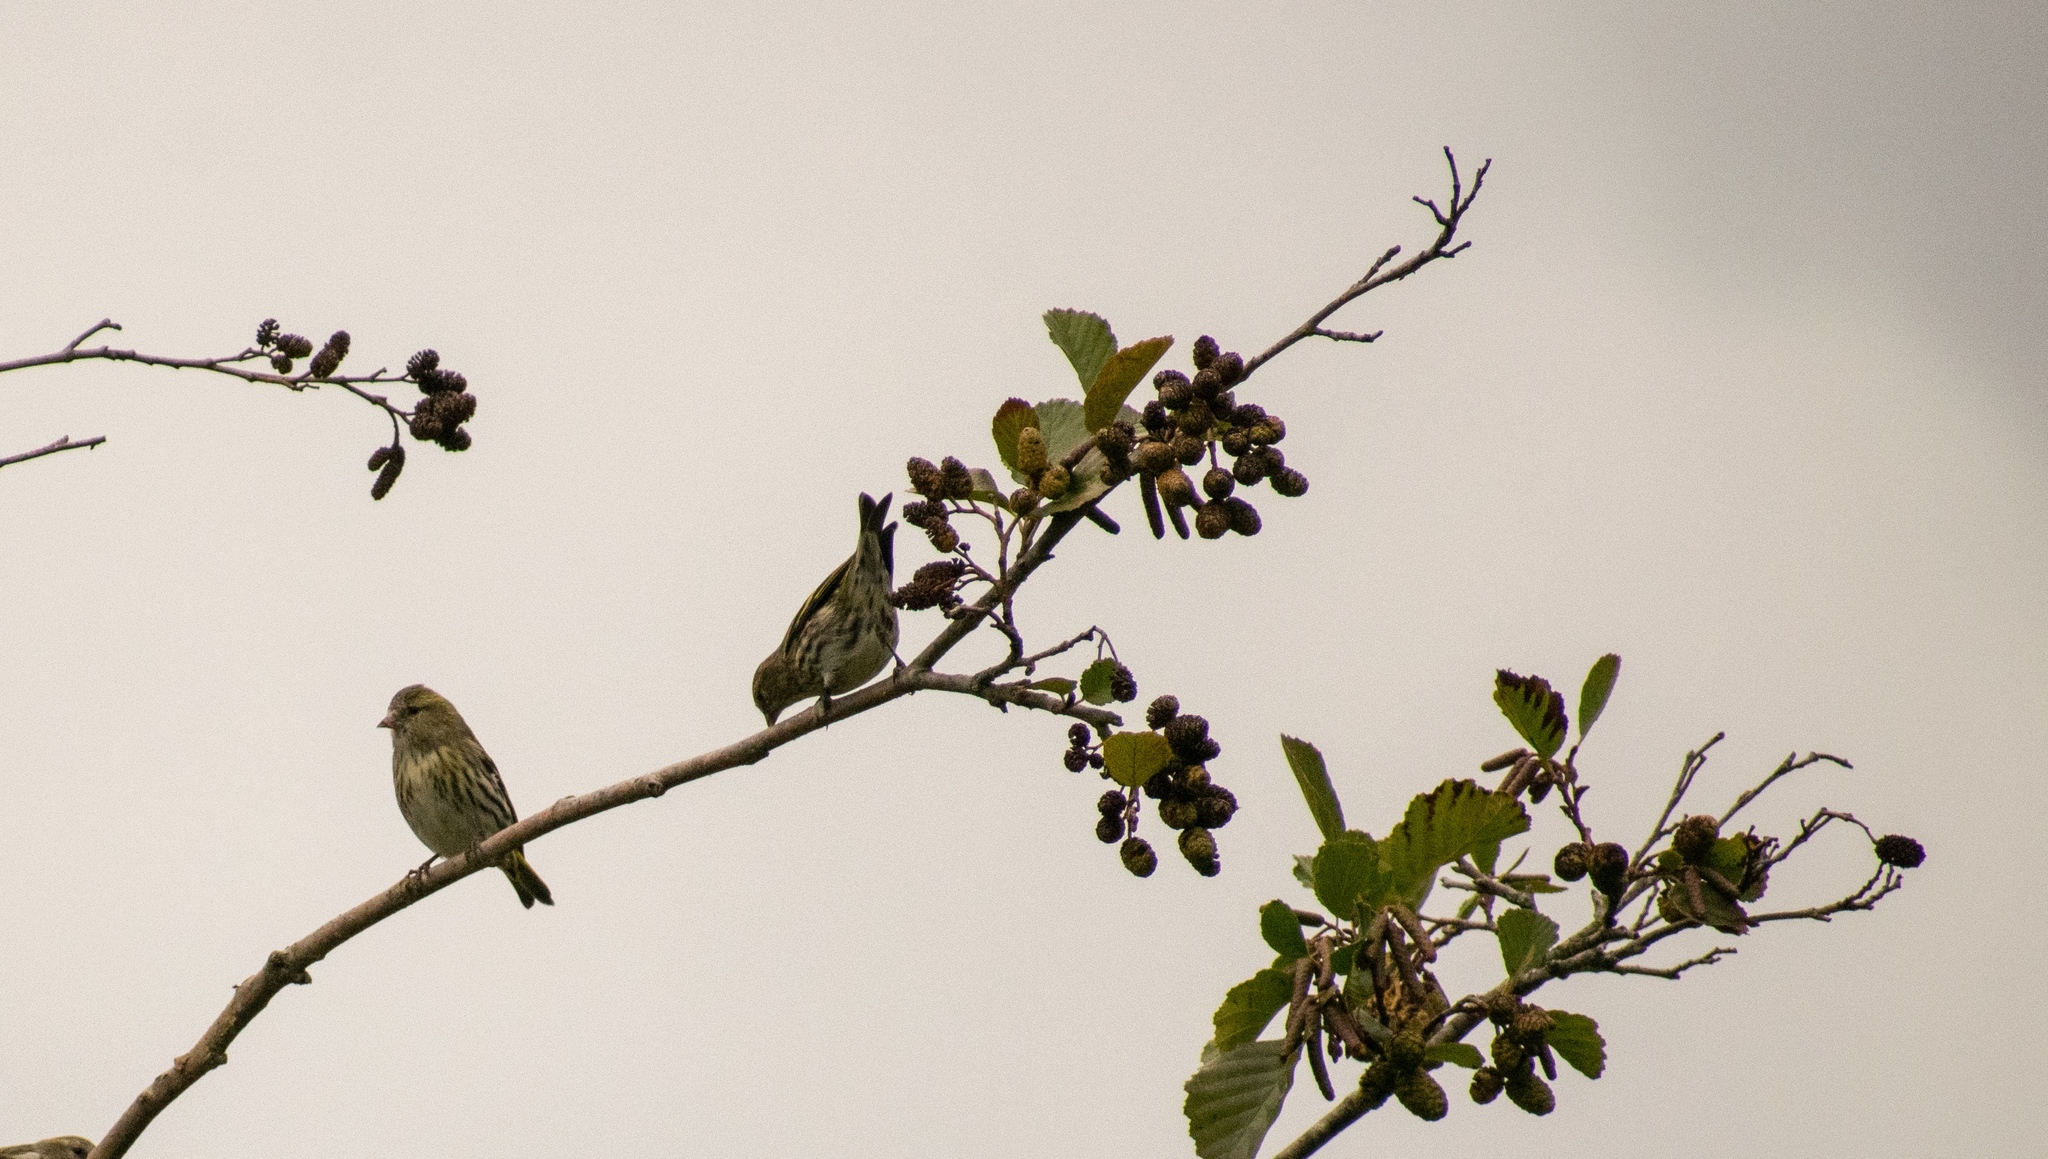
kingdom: Animalia
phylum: Chordata
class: Aves
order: Passeriformes
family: Fringillidae
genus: Serinus
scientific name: Serinus serinus
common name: European serin
